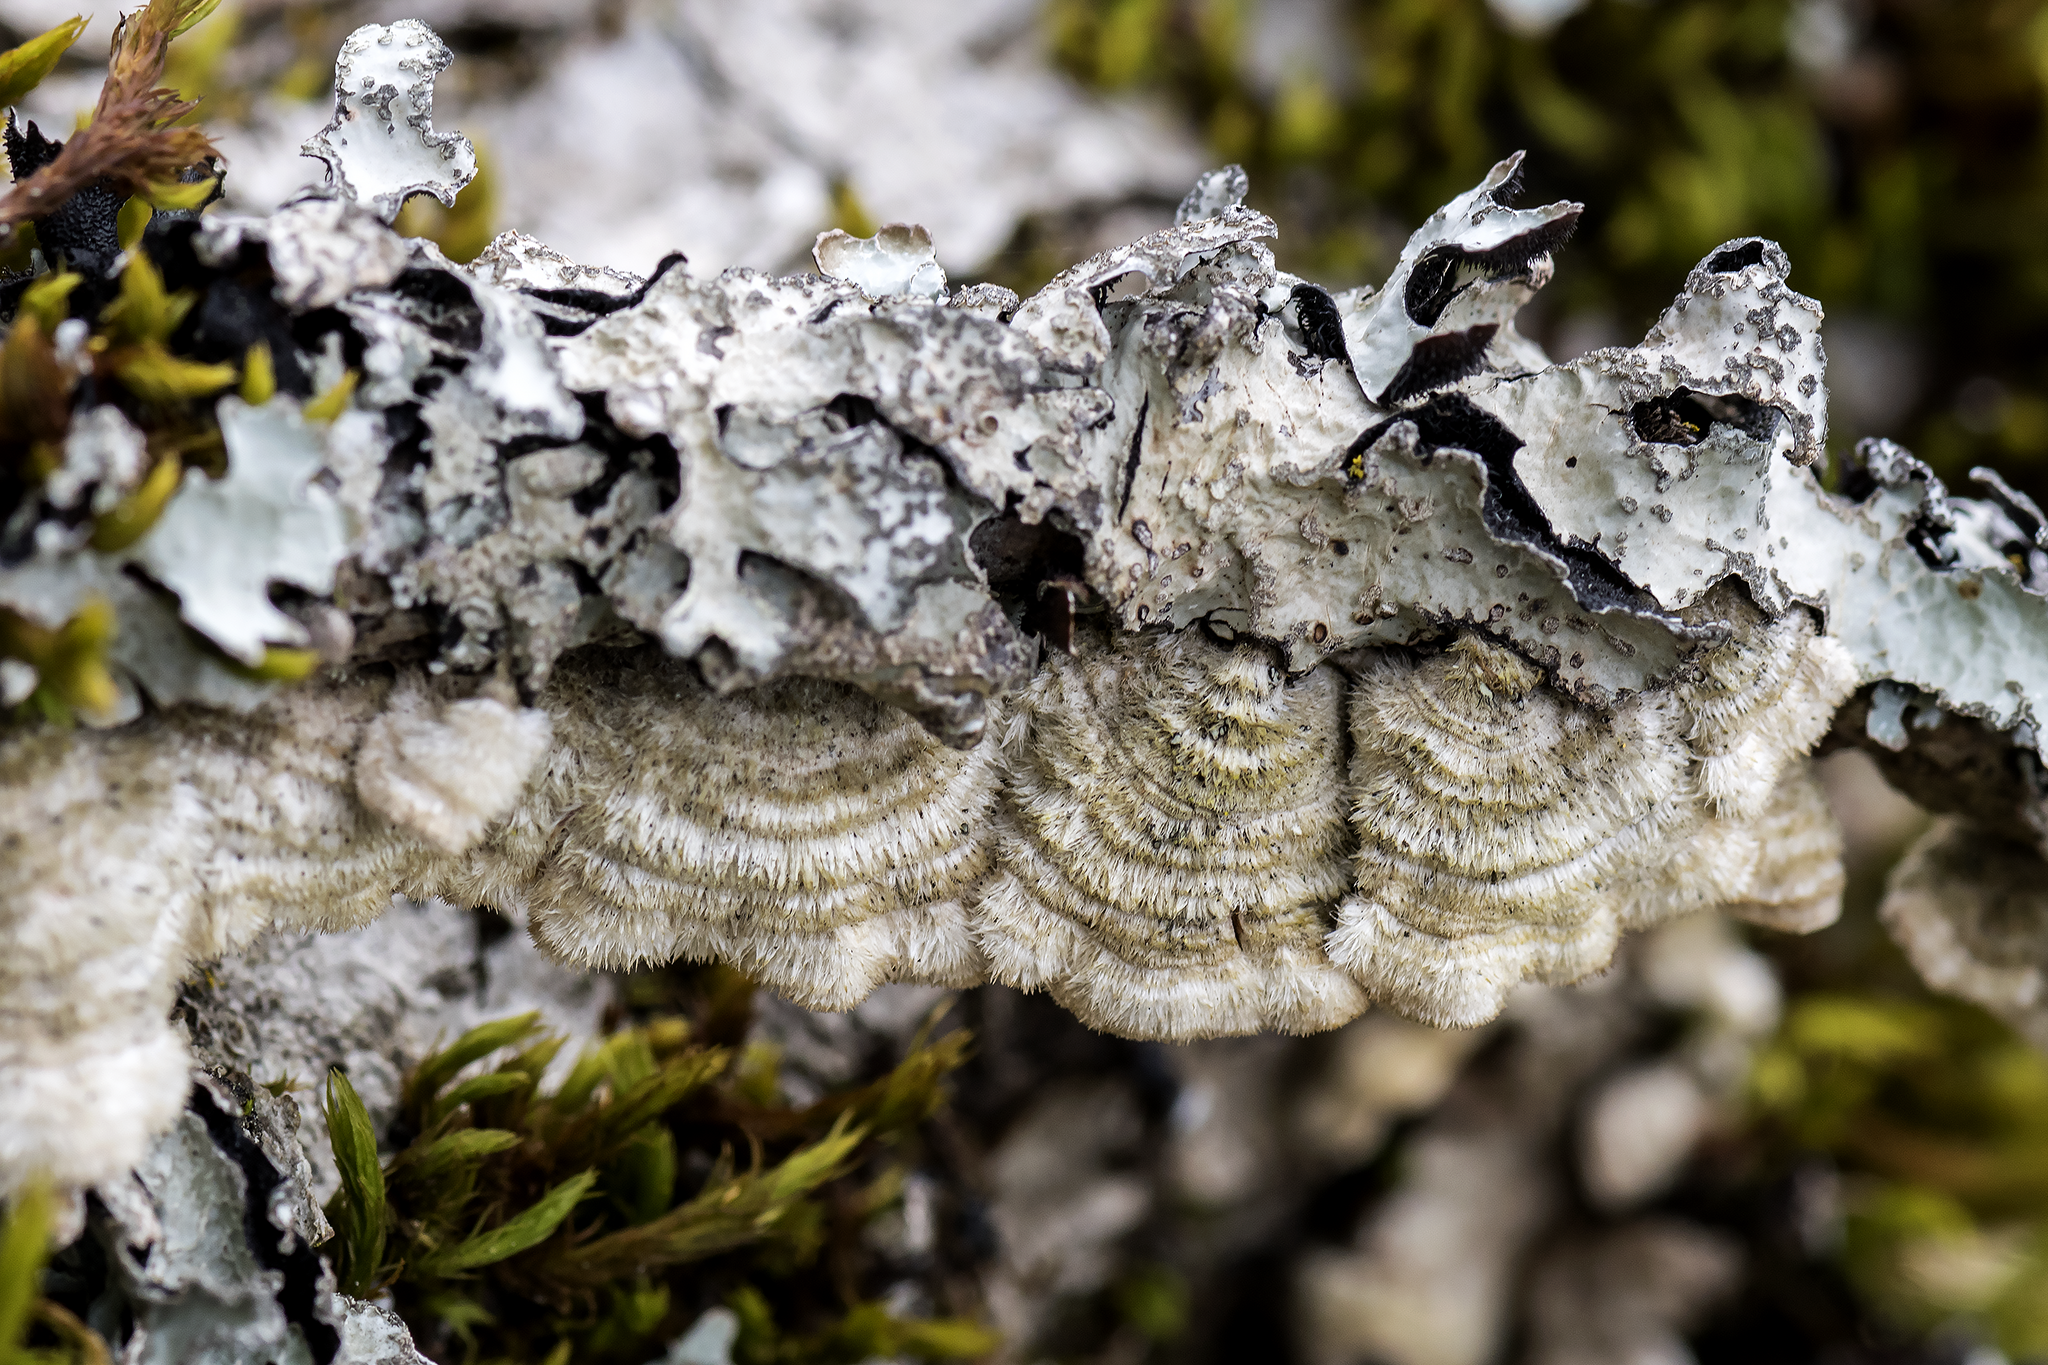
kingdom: Fungi
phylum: Basidiomycota
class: Agaricomycetes
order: Polyporales
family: Cerrenaceae
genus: Cerrena
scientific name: Cerrena unicolor
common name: Mossy maze polypore
